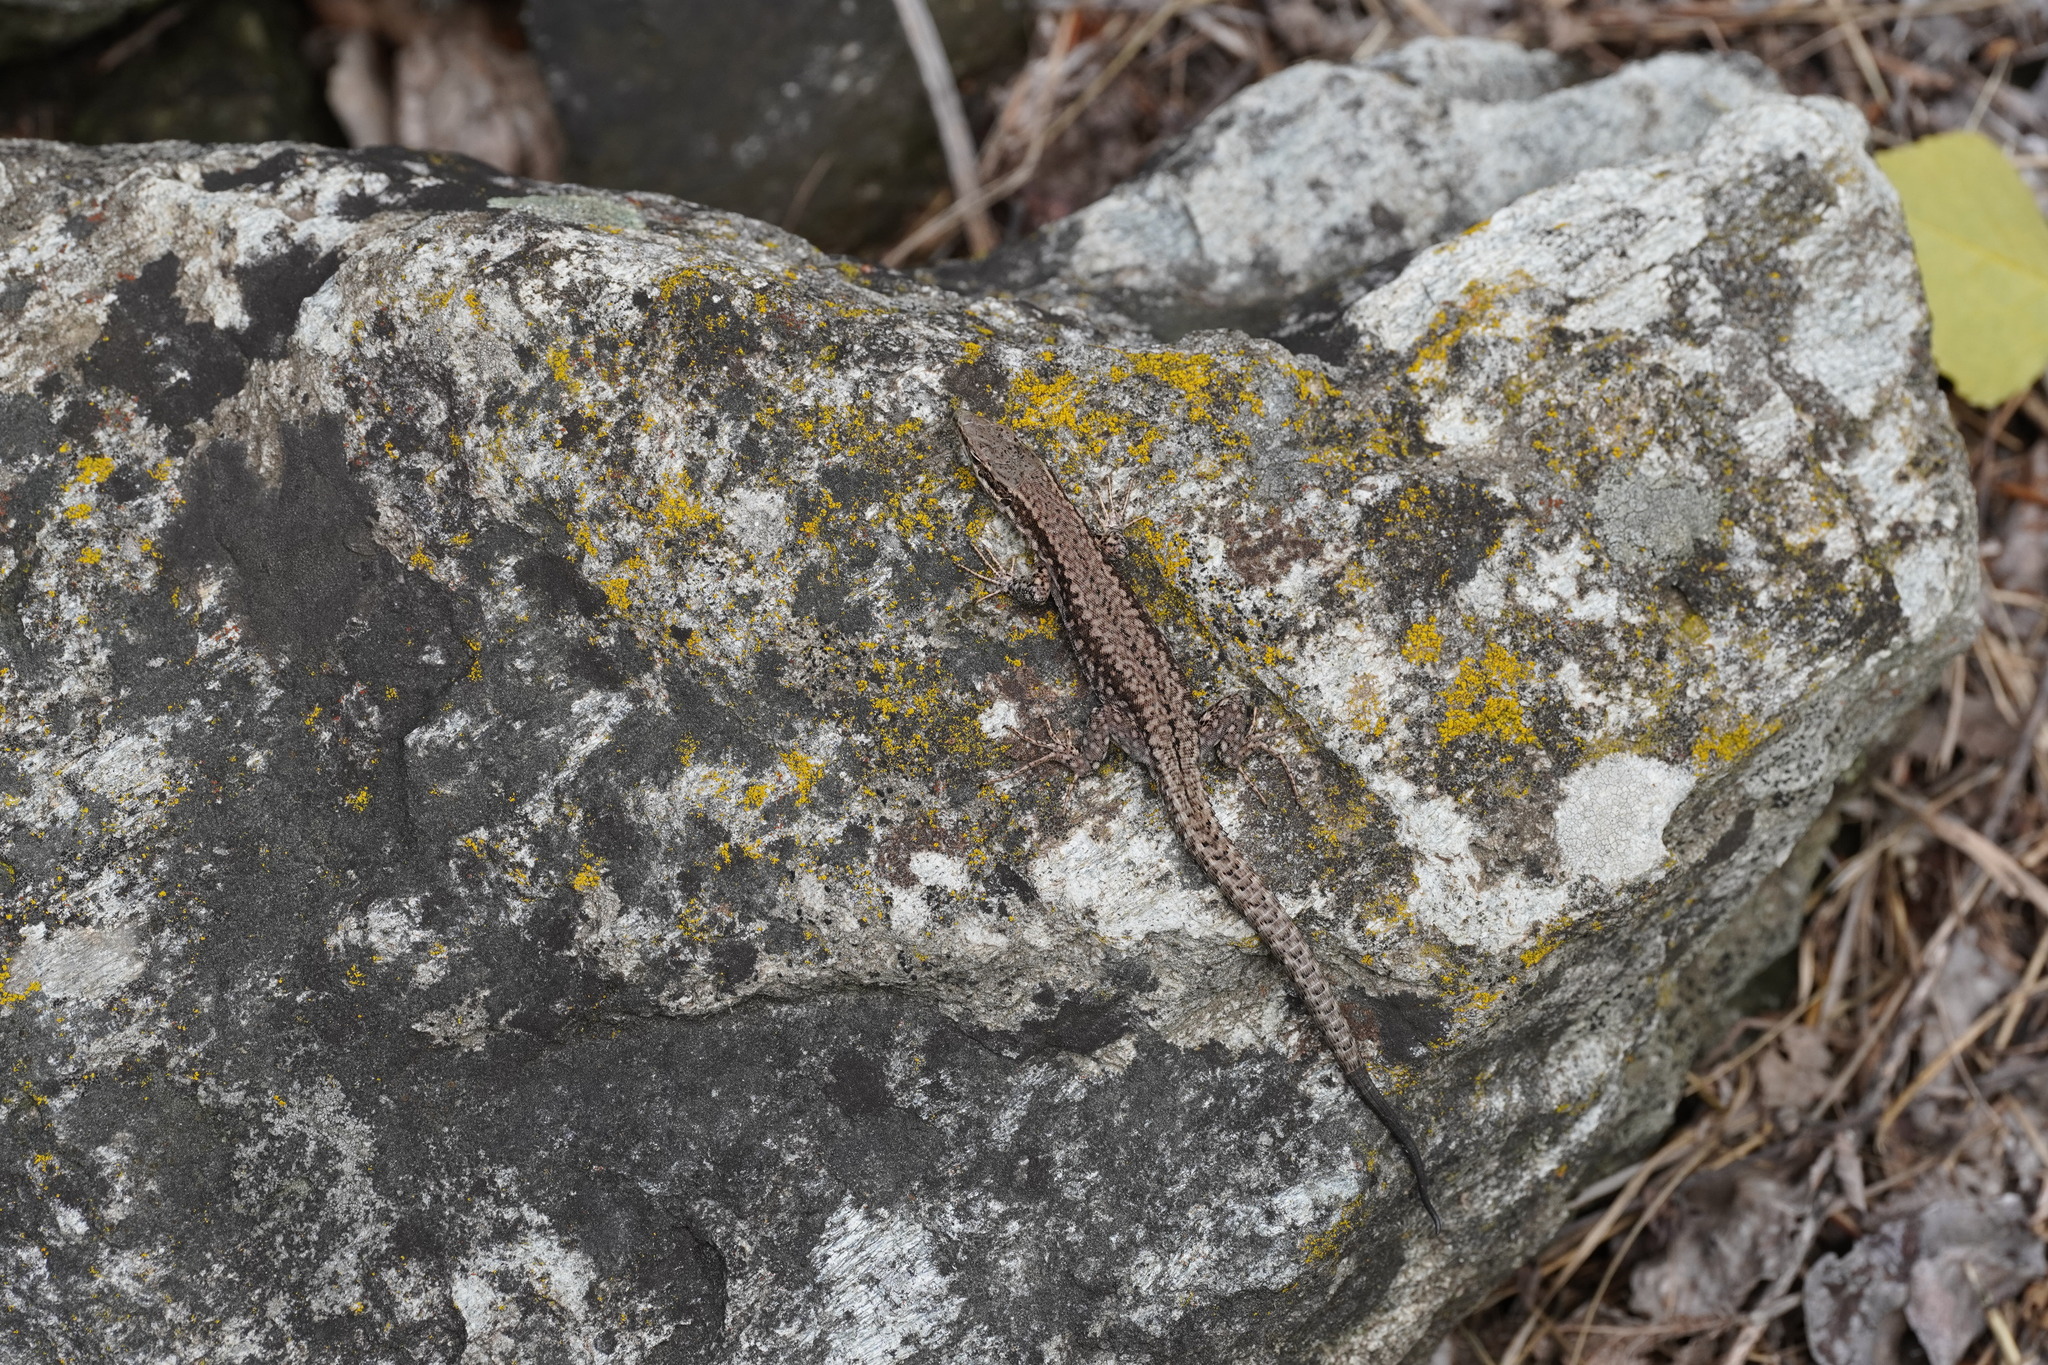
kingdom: Animalia
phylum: Chordata
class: Squamata
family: Lacertidae
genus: Podarcis
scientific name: Podarcis muralis
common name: Common wall lizard
